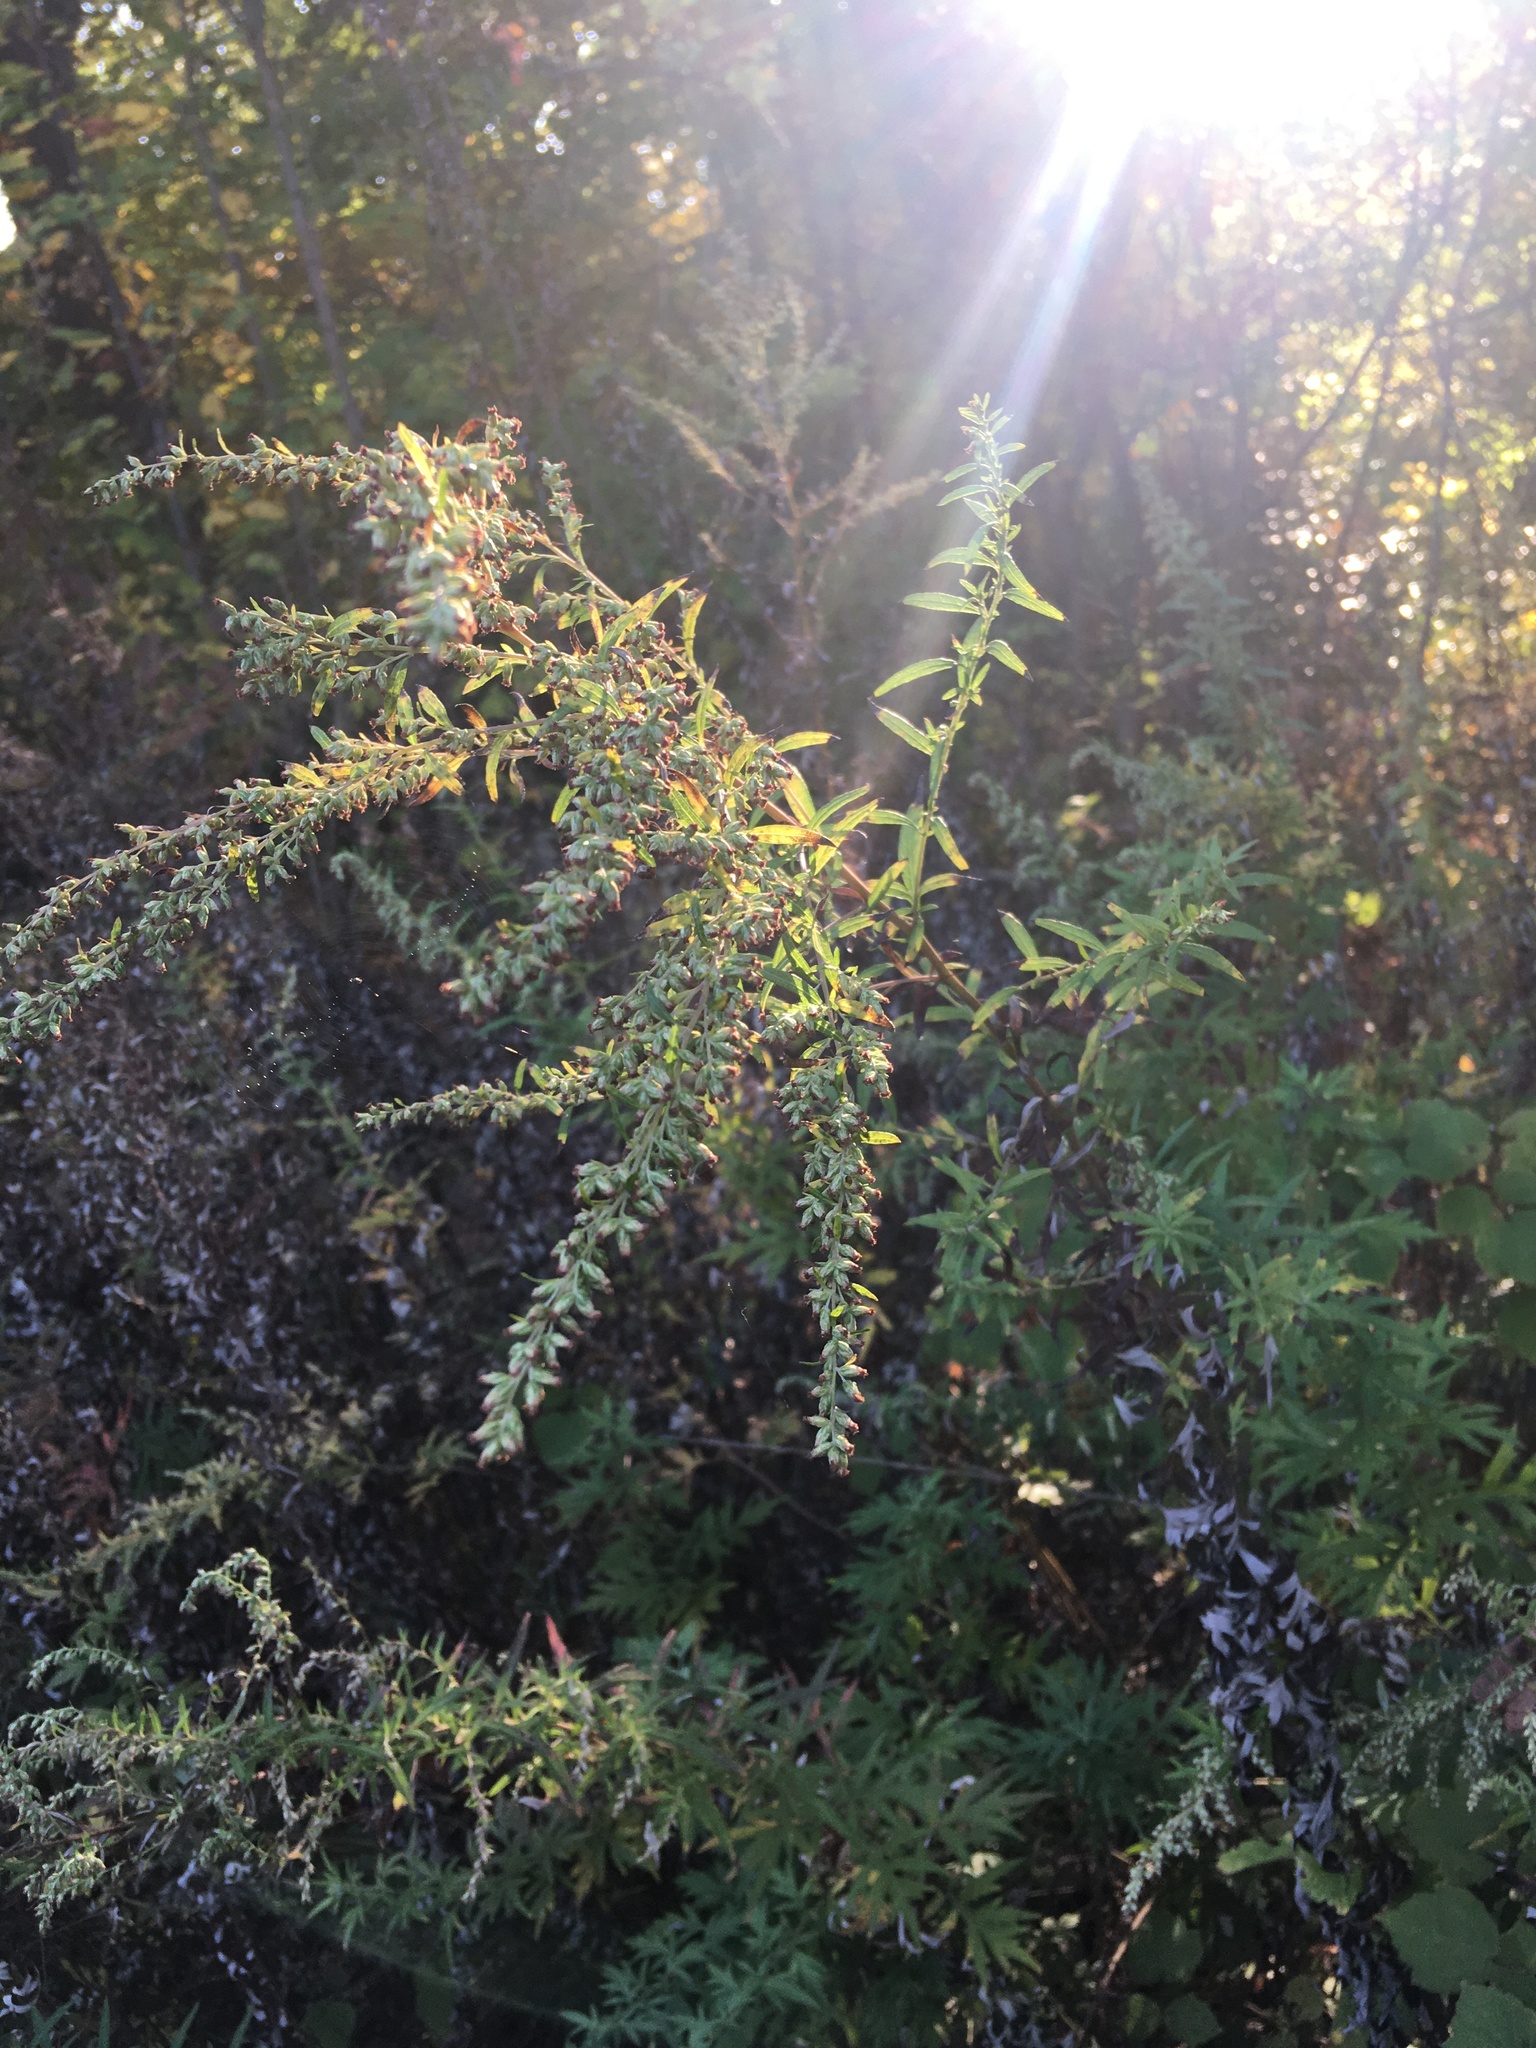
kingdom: Plantae
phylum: Tracheophyta
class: Magnoliopsida
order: Asterales
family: Asteraceae
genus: Artemisia
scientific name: Artemisia vulgaris
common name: Mugwort
